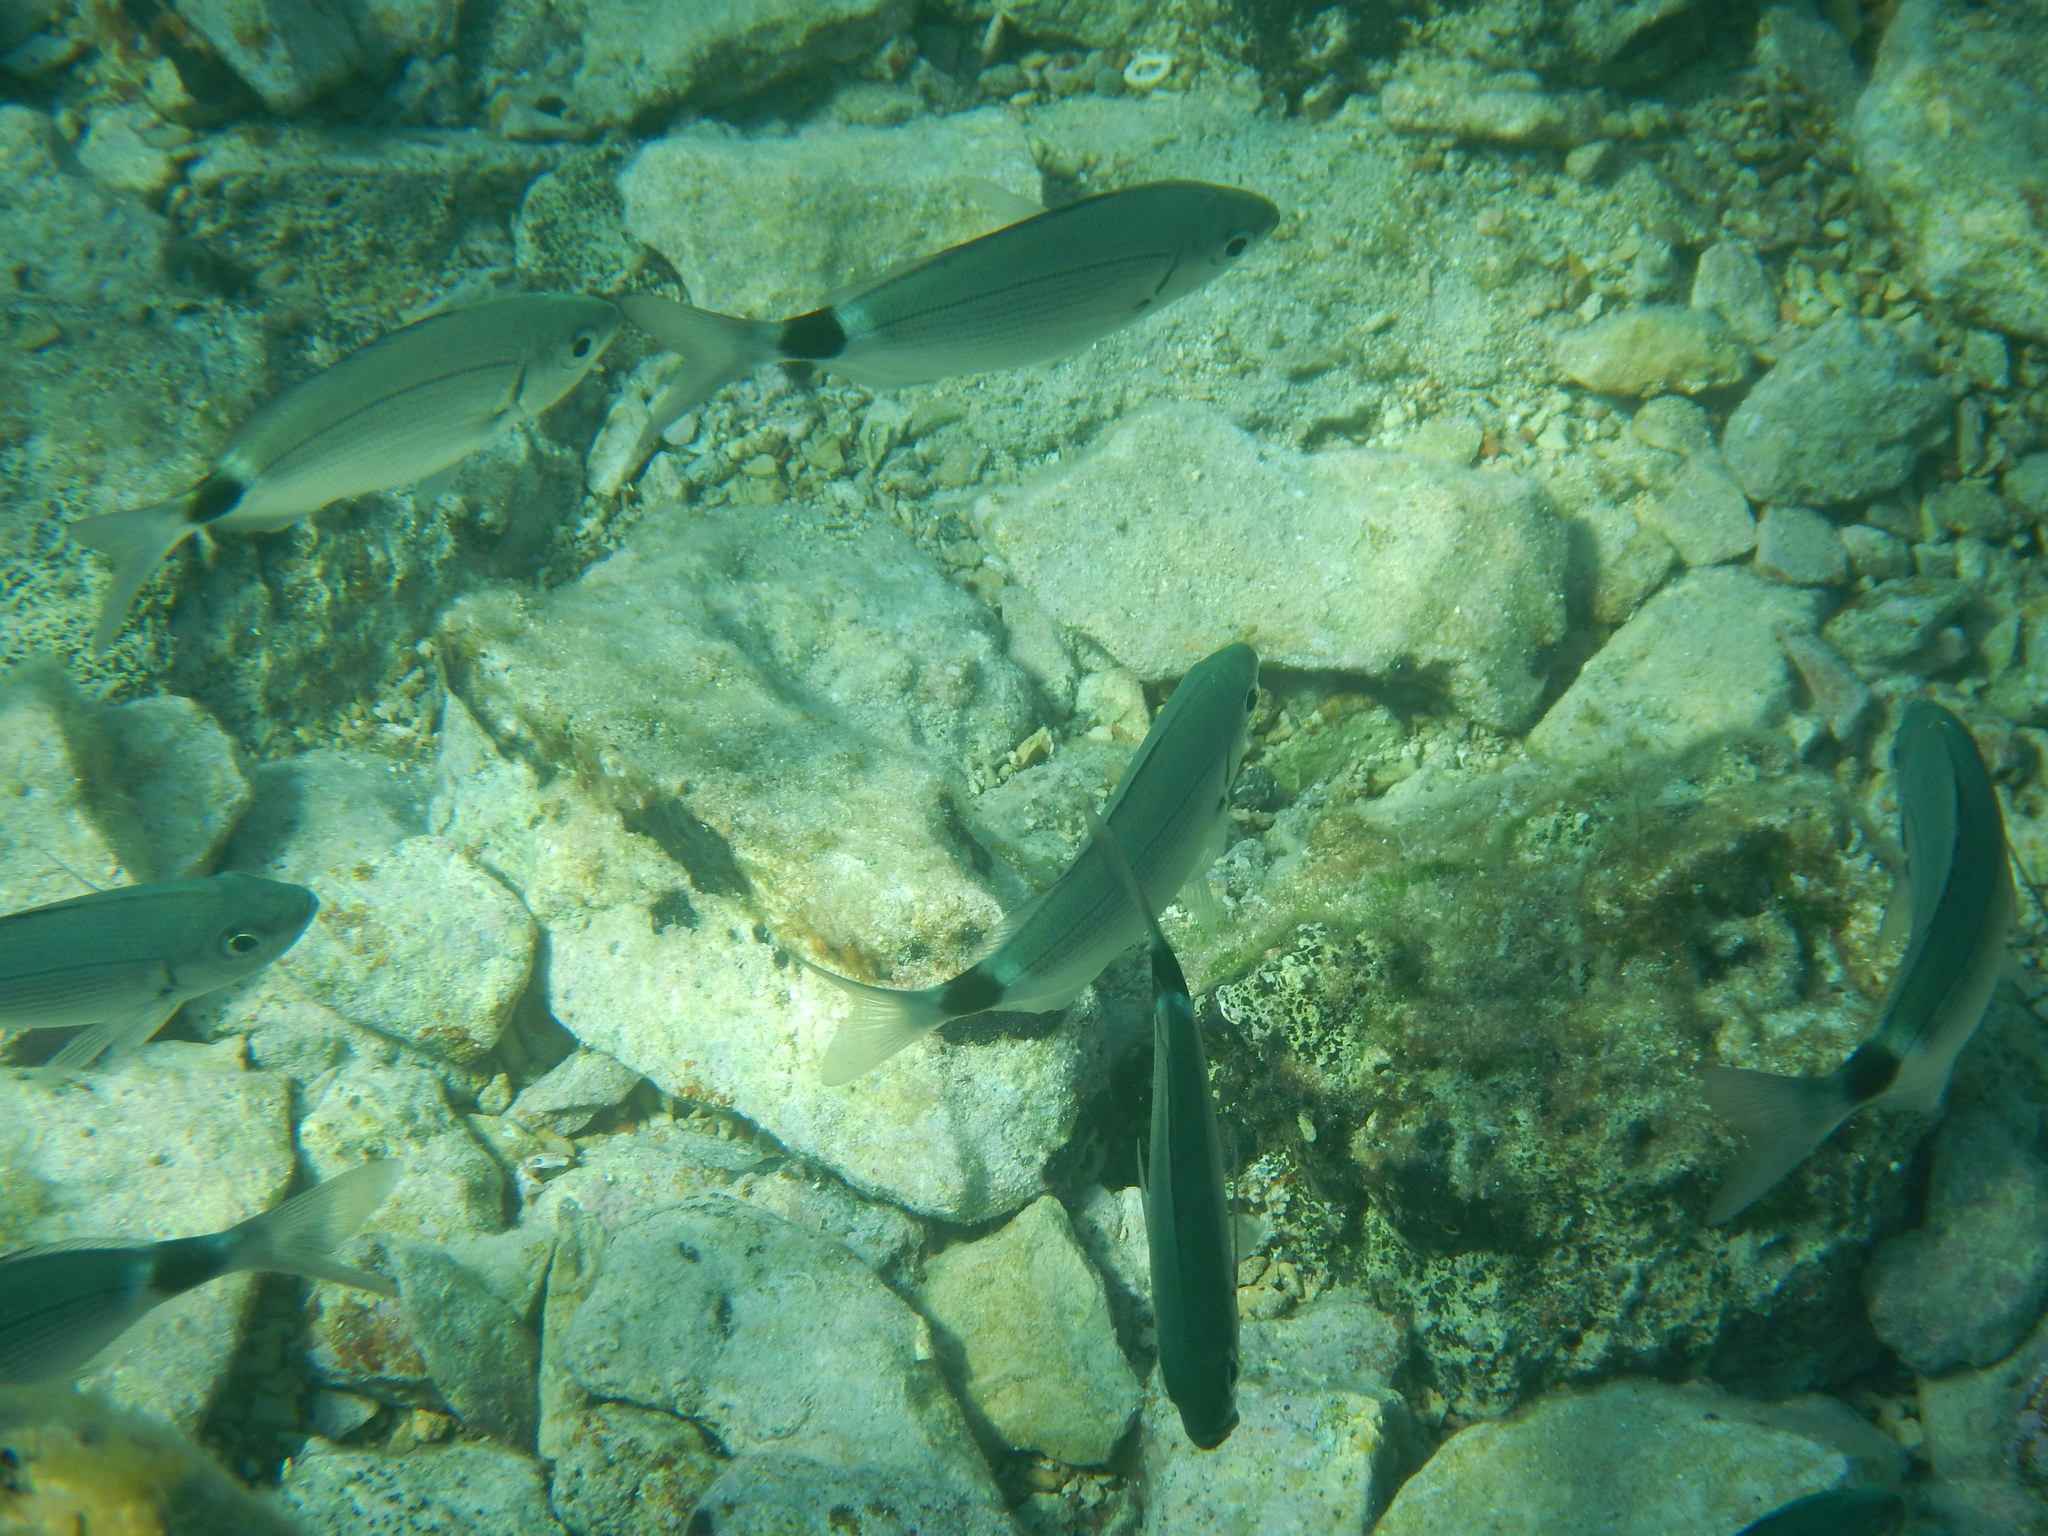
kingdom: Animalia
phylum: Chordata
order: Perciformes
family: Sparidae
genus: Oblada
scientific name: Oblada melanura
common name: Saddled seabream
